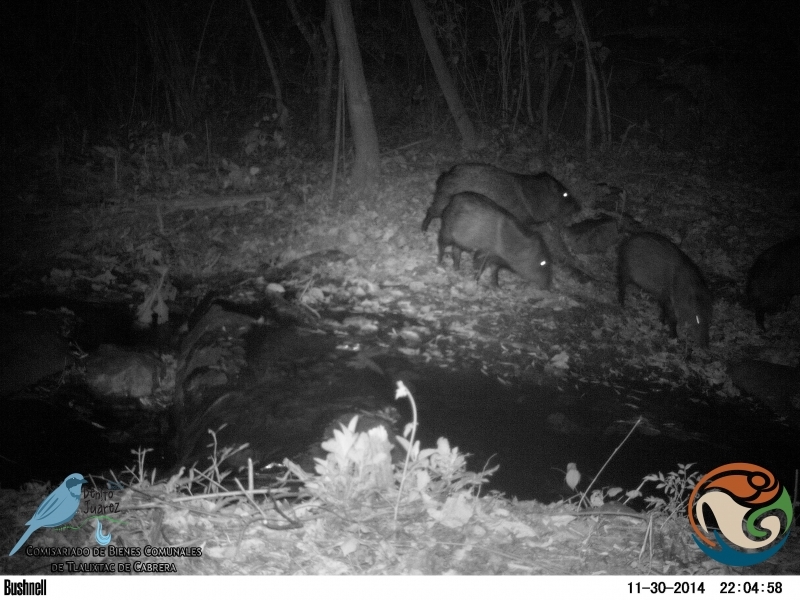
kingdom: Animalia
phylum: Chordata
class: Mammalia
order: Artiodactyla
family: Tayassuidae
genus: Pecari
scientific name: Pecari tajacu
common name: Collared peccary
